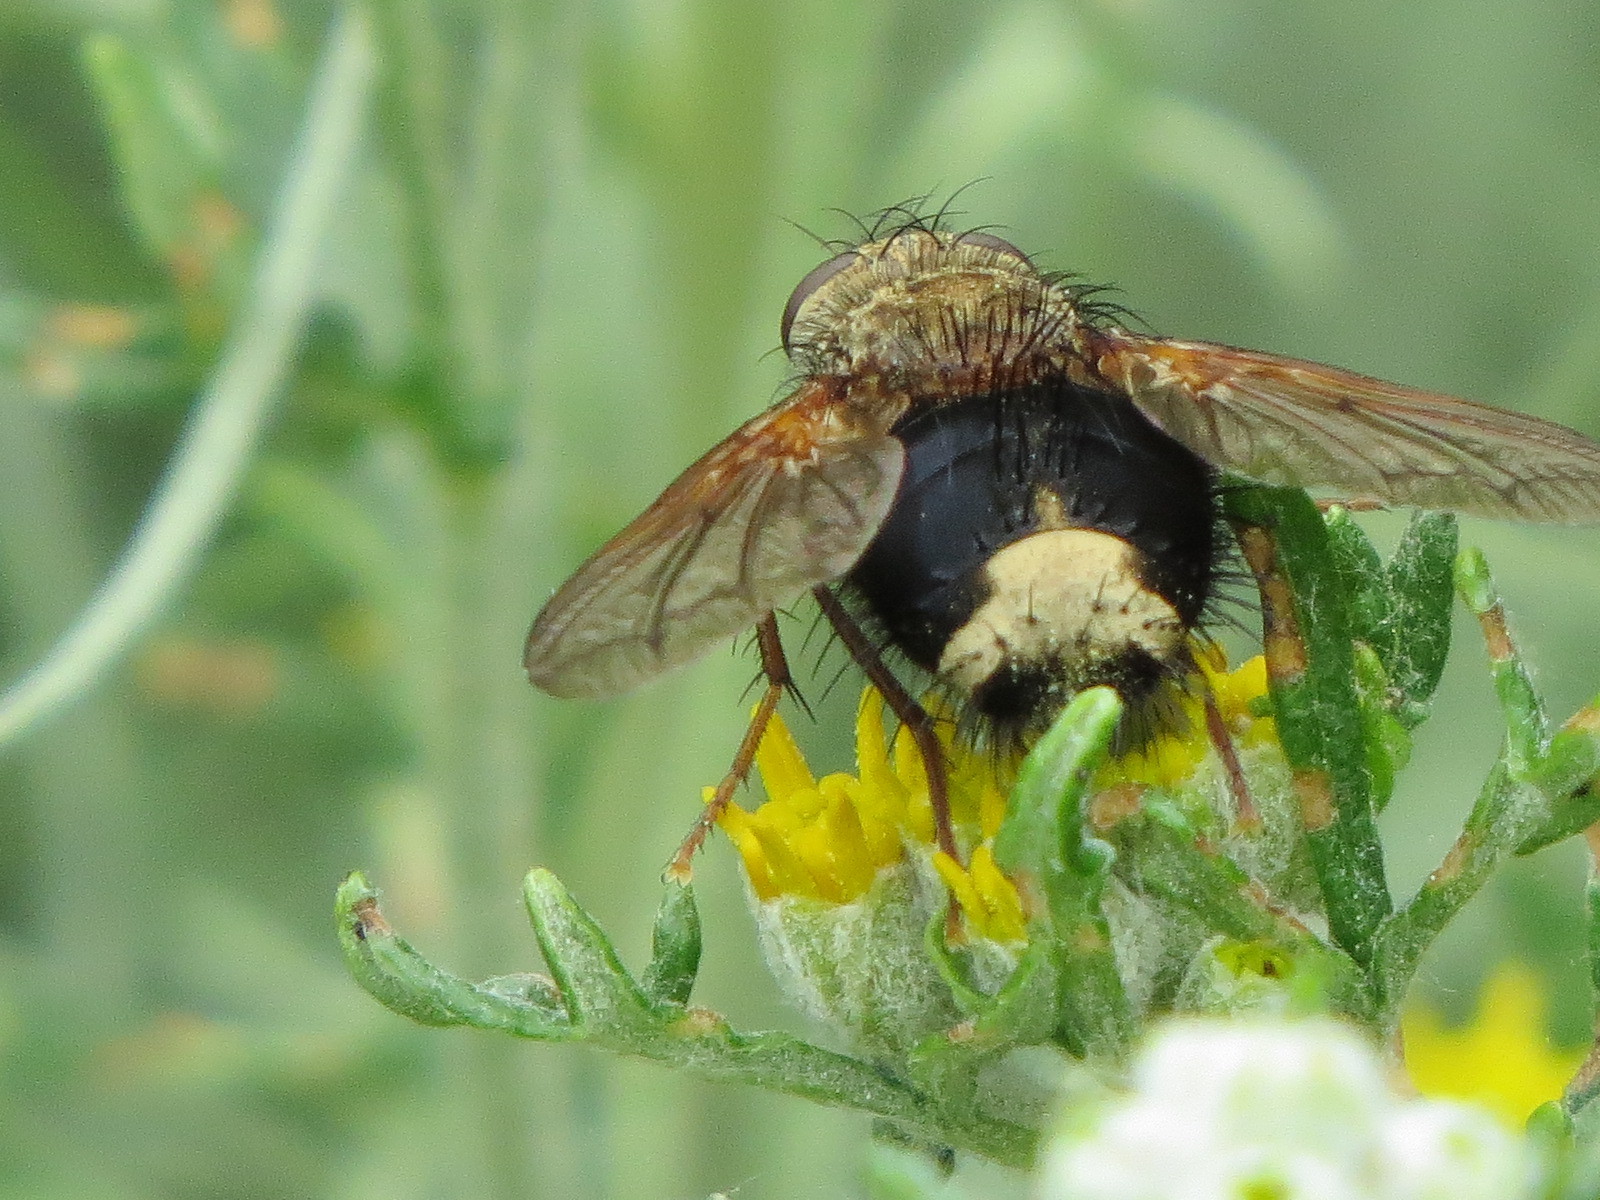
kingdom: Animalia
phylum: Arthropoda
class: Insecta
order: Diptera
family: Tachinidae
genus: Epalpus
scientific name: Epalpus signifer
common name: Early tachinid fly
